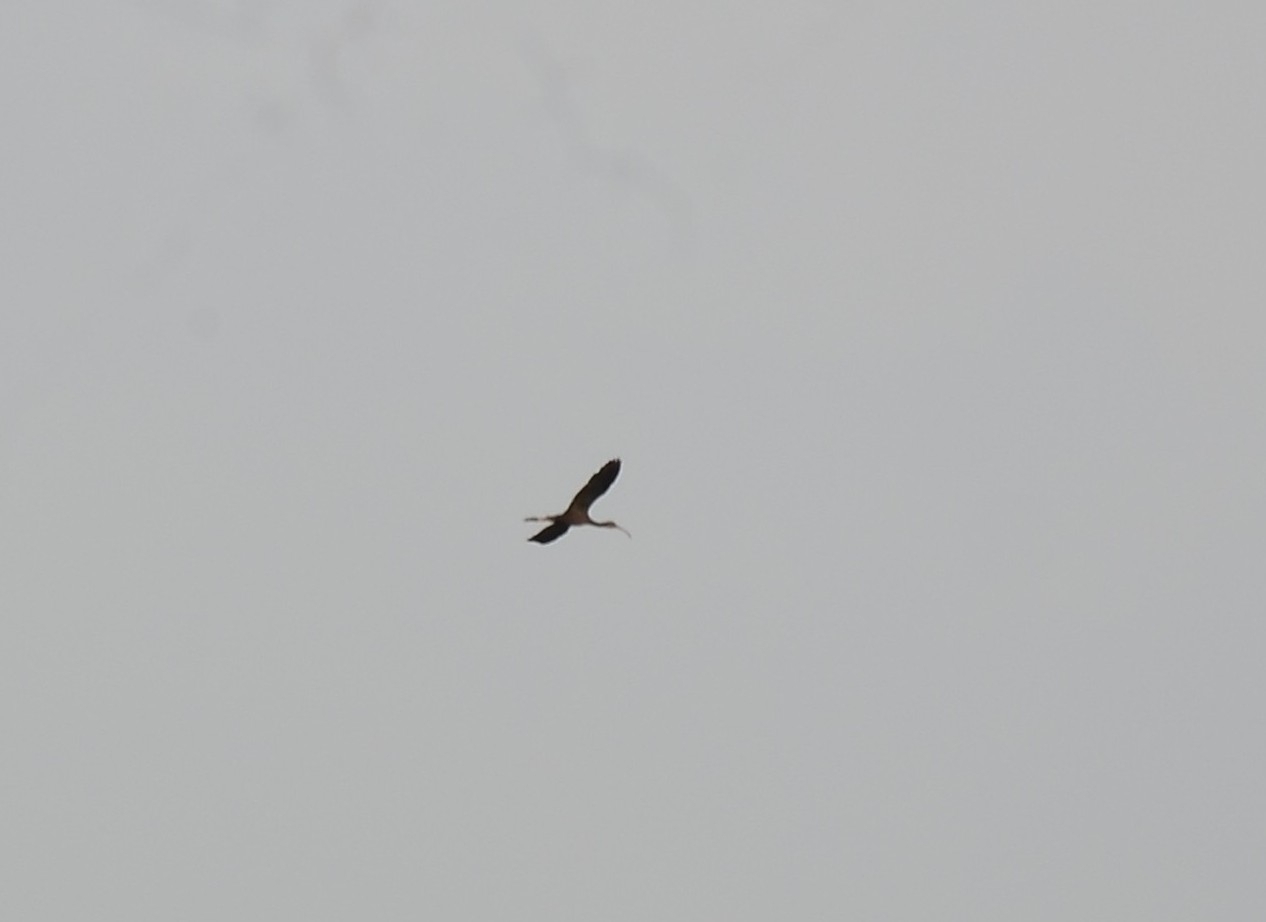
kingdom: Animalia
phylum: Chordata
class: Aves
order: Pelecaniformes
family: Threskiornithidae
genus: Plegadis
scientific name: Plegadis falcinellus
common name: Glossy ibis
